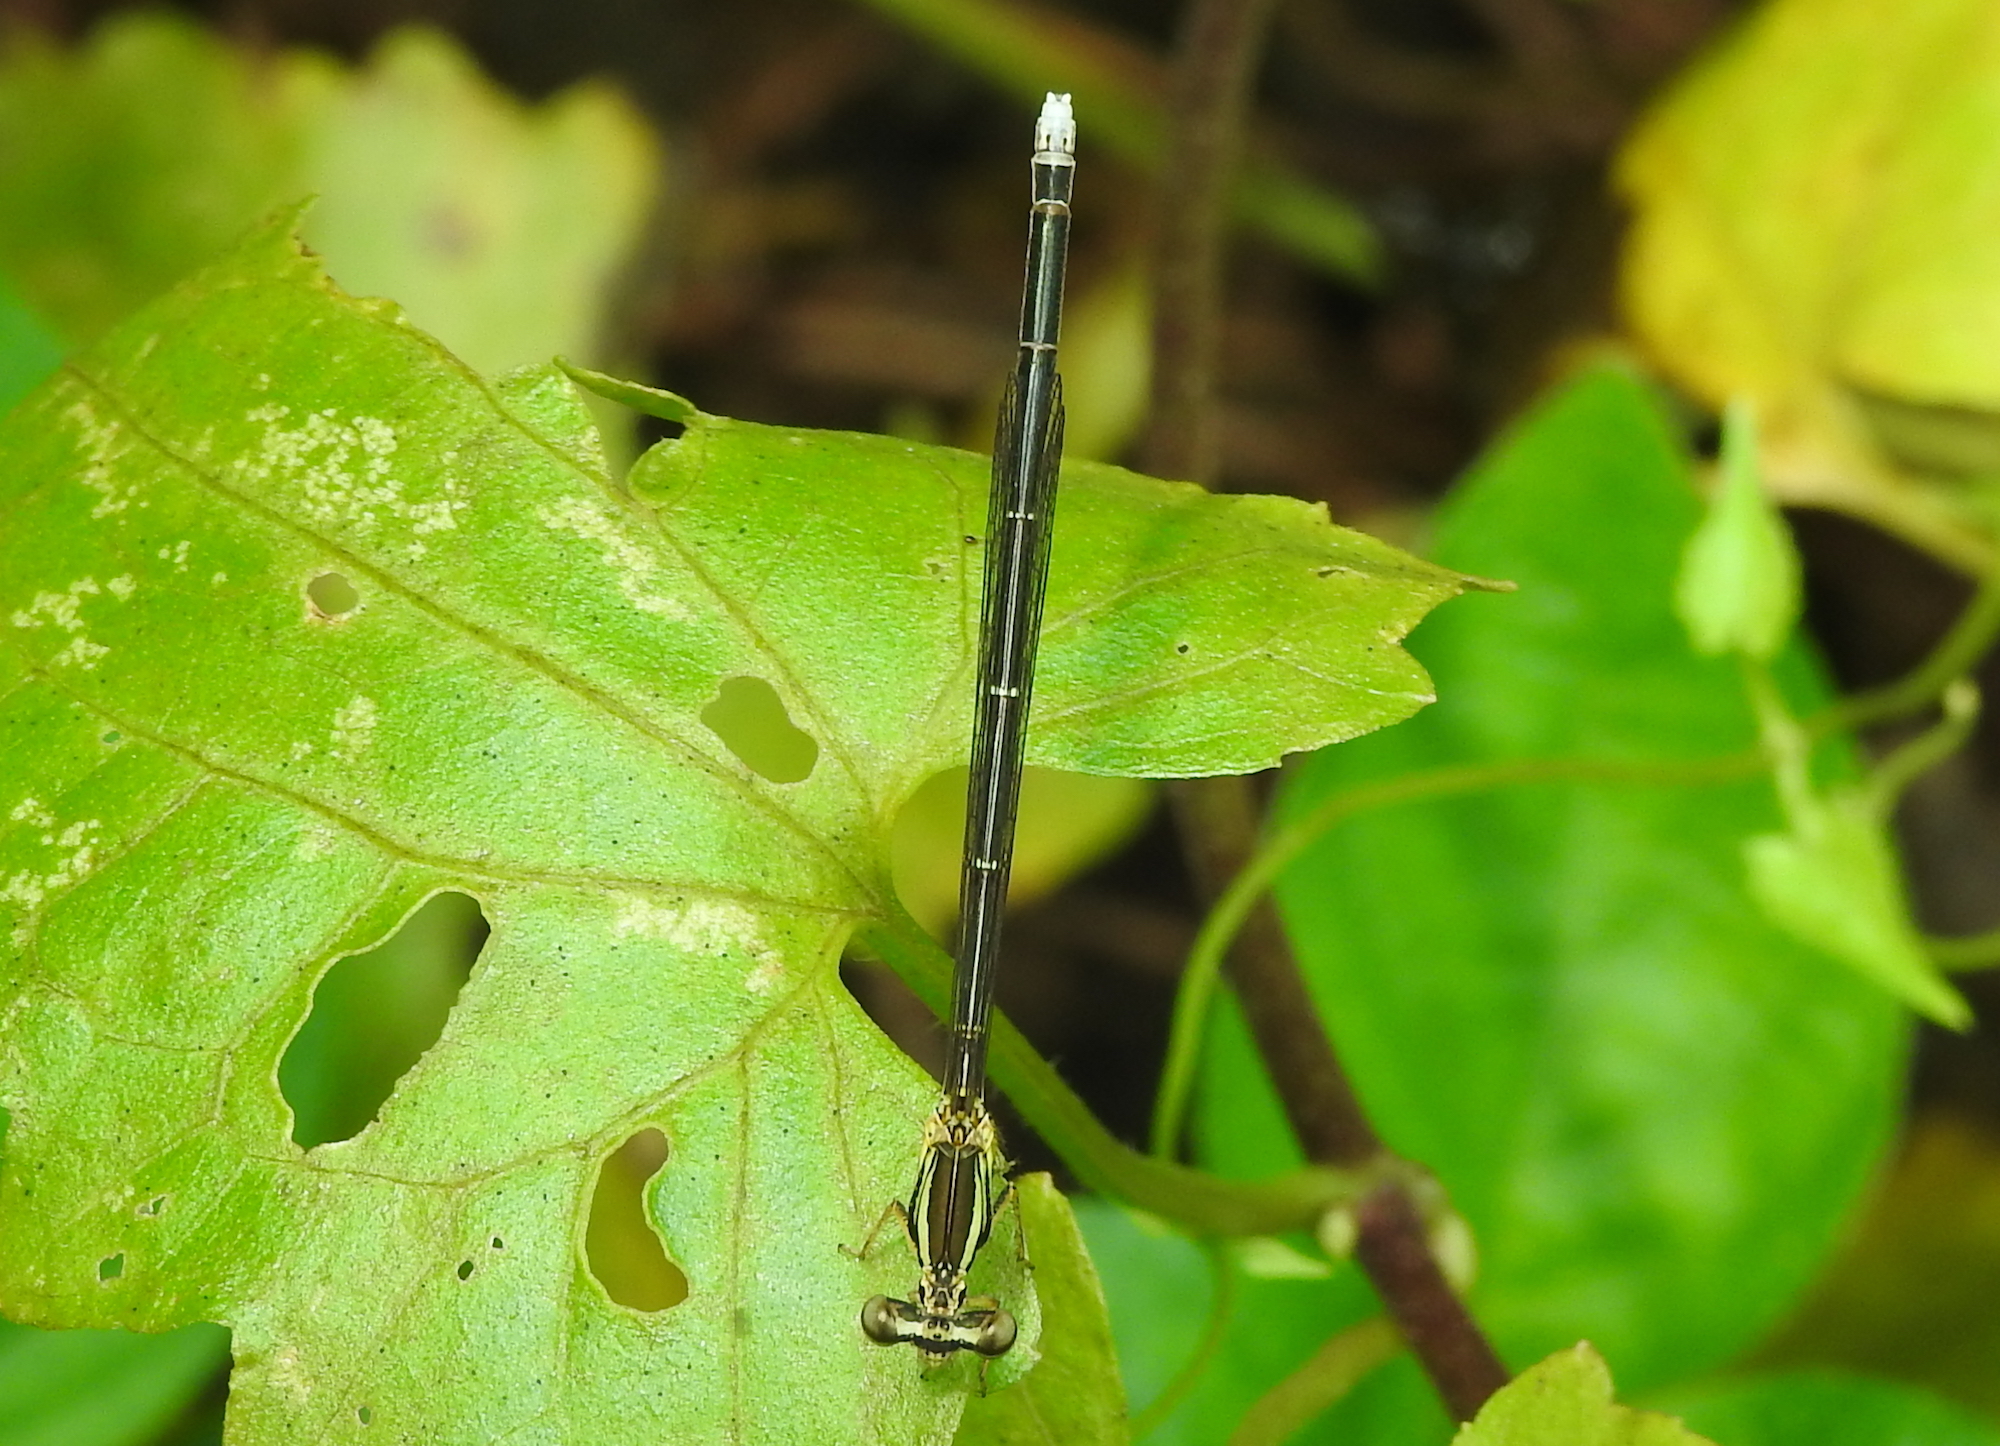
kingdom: Animalia
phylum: Arthropoda
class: Insecta
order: Odonata
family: Platycnemididae
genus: Copera
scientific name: Copera marginipes
